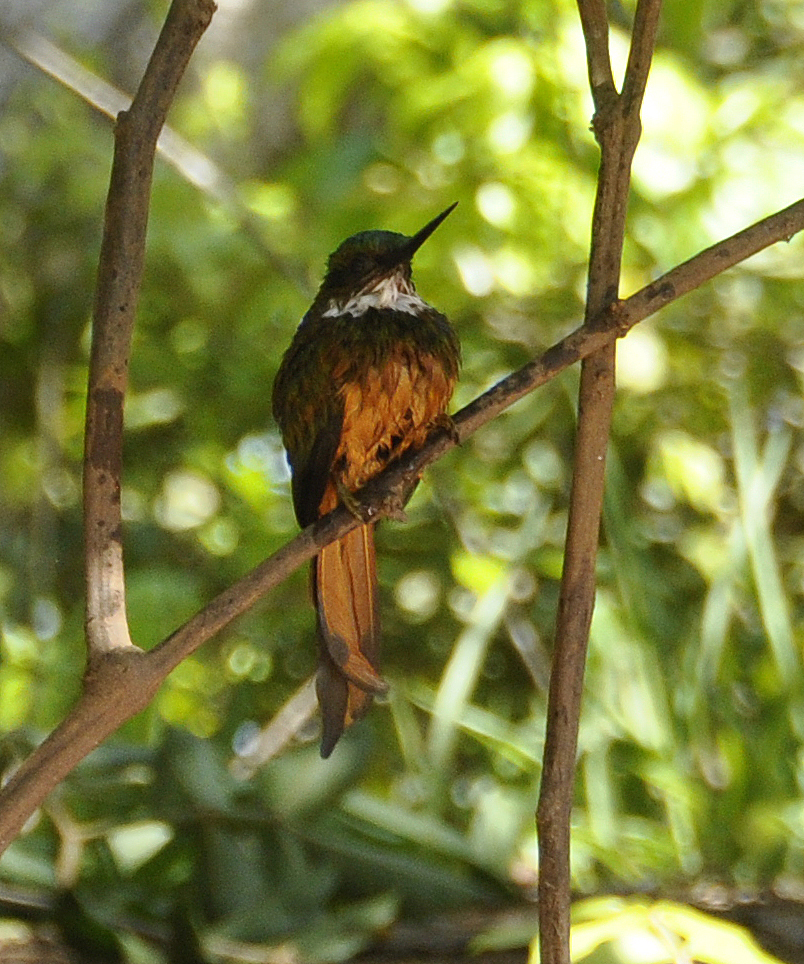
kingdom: Animalia
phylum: Chordata
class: Aves
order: Piciformes
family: Galbulidae
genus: Galbula
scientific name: Galbula ruficauda
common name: Rufous-tailed jacamar
